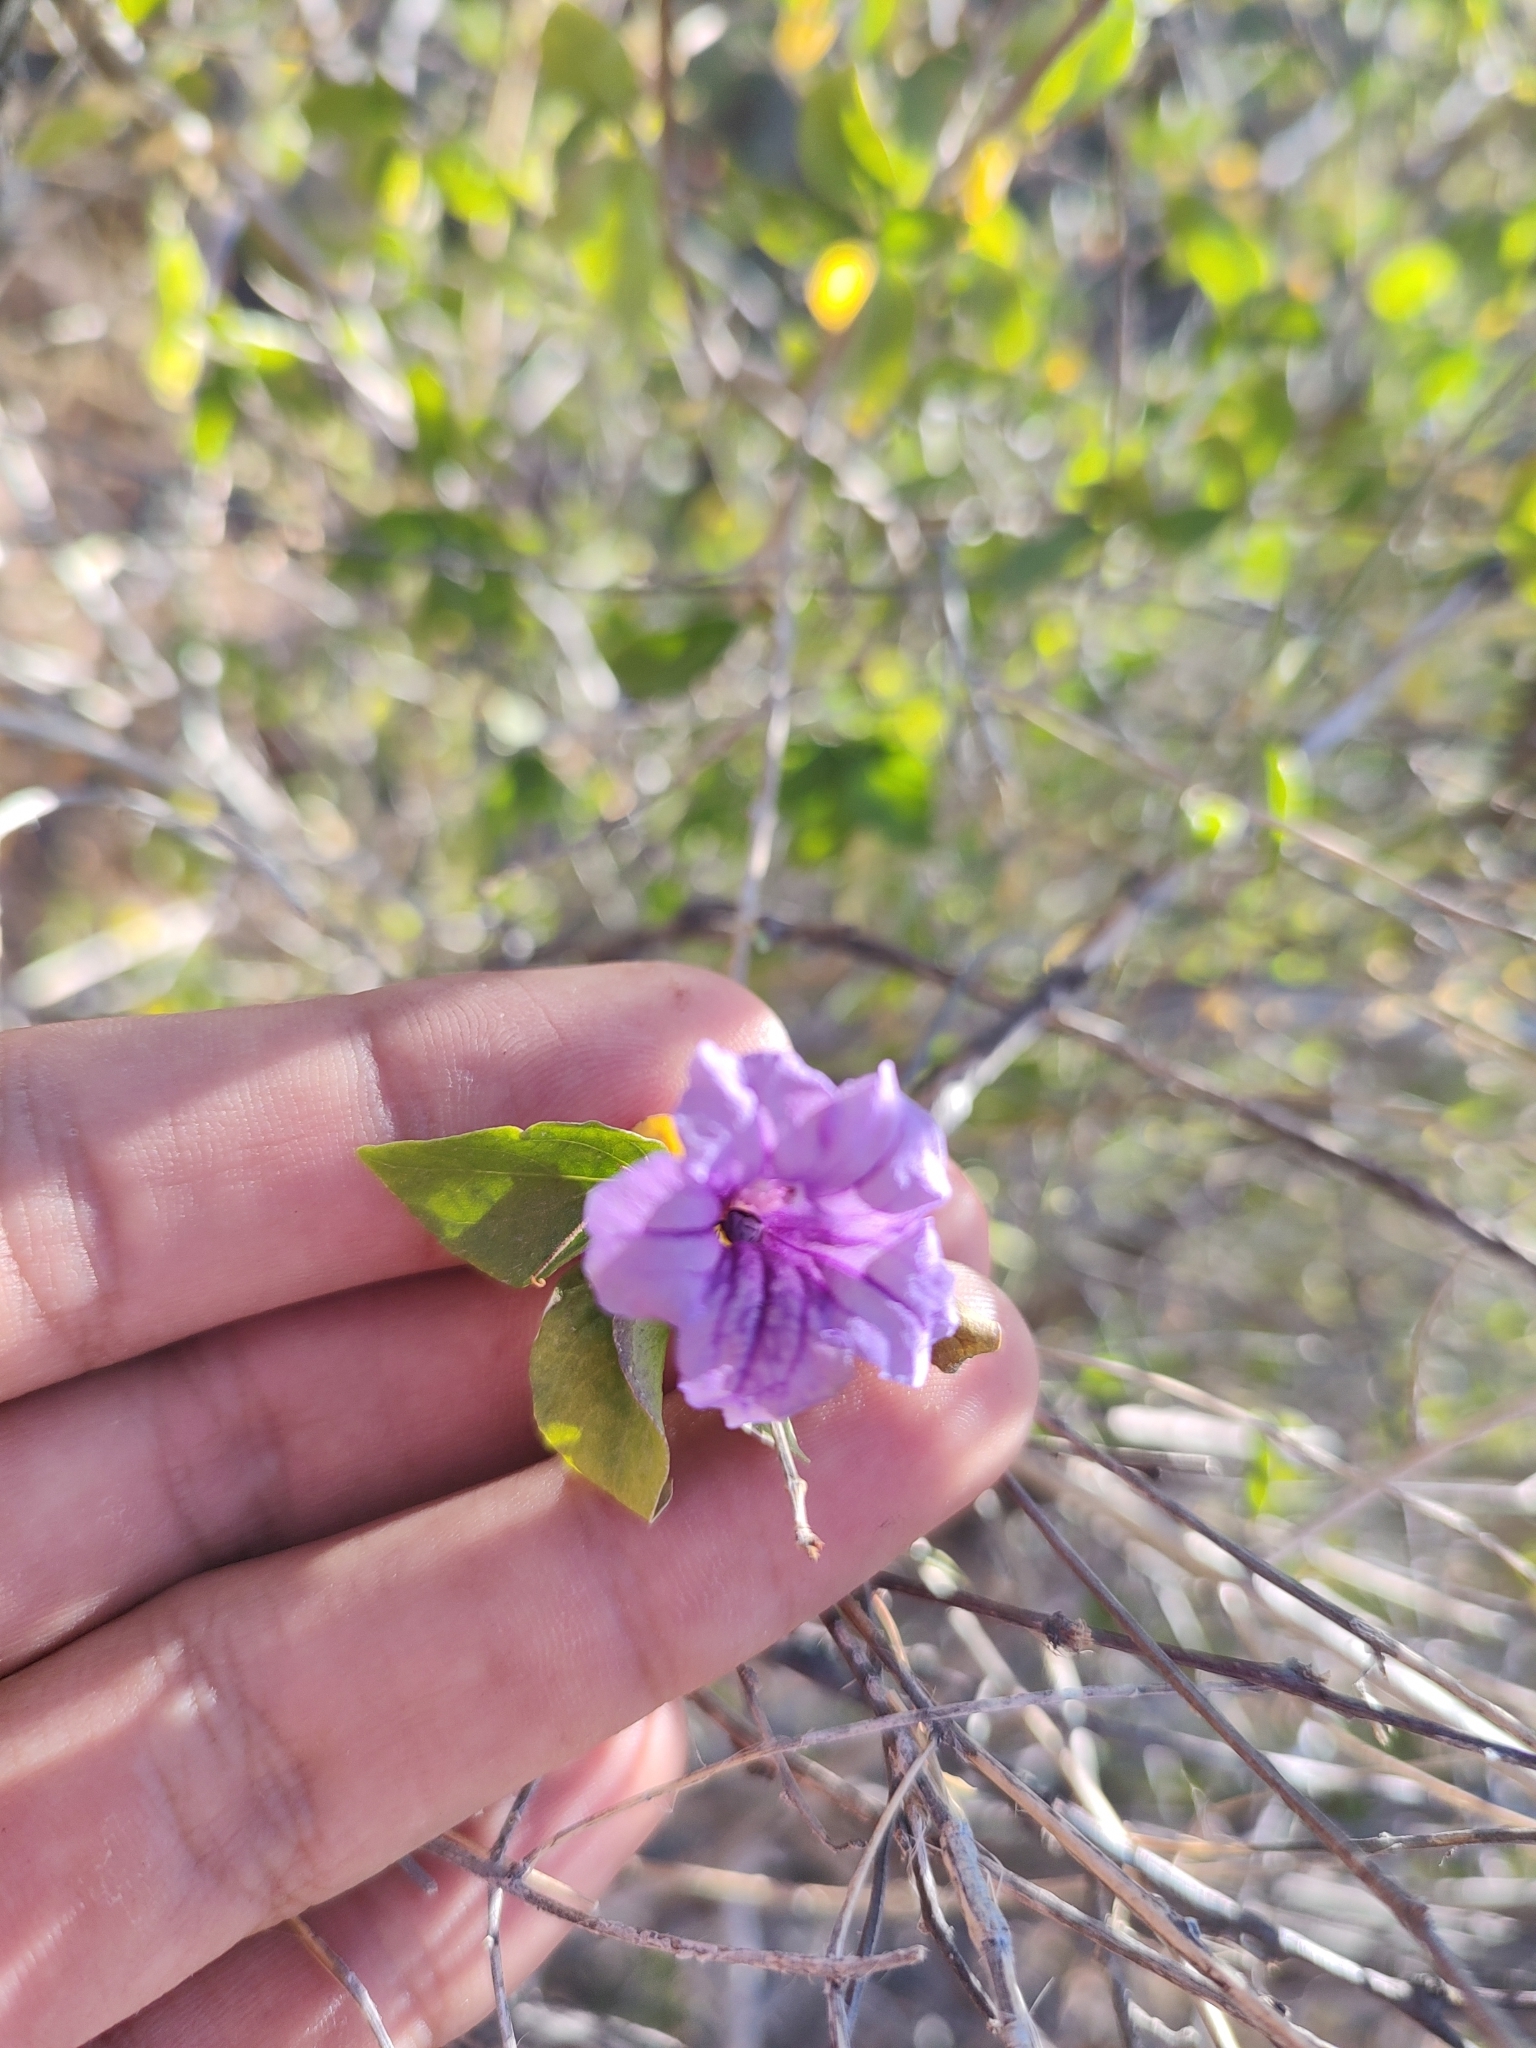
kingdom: Plantae
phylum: Tracheophyta
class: Magnoliopsida
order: Lamiales
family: Acanthaceae
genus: Ruellia
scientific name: Ruellia californica
